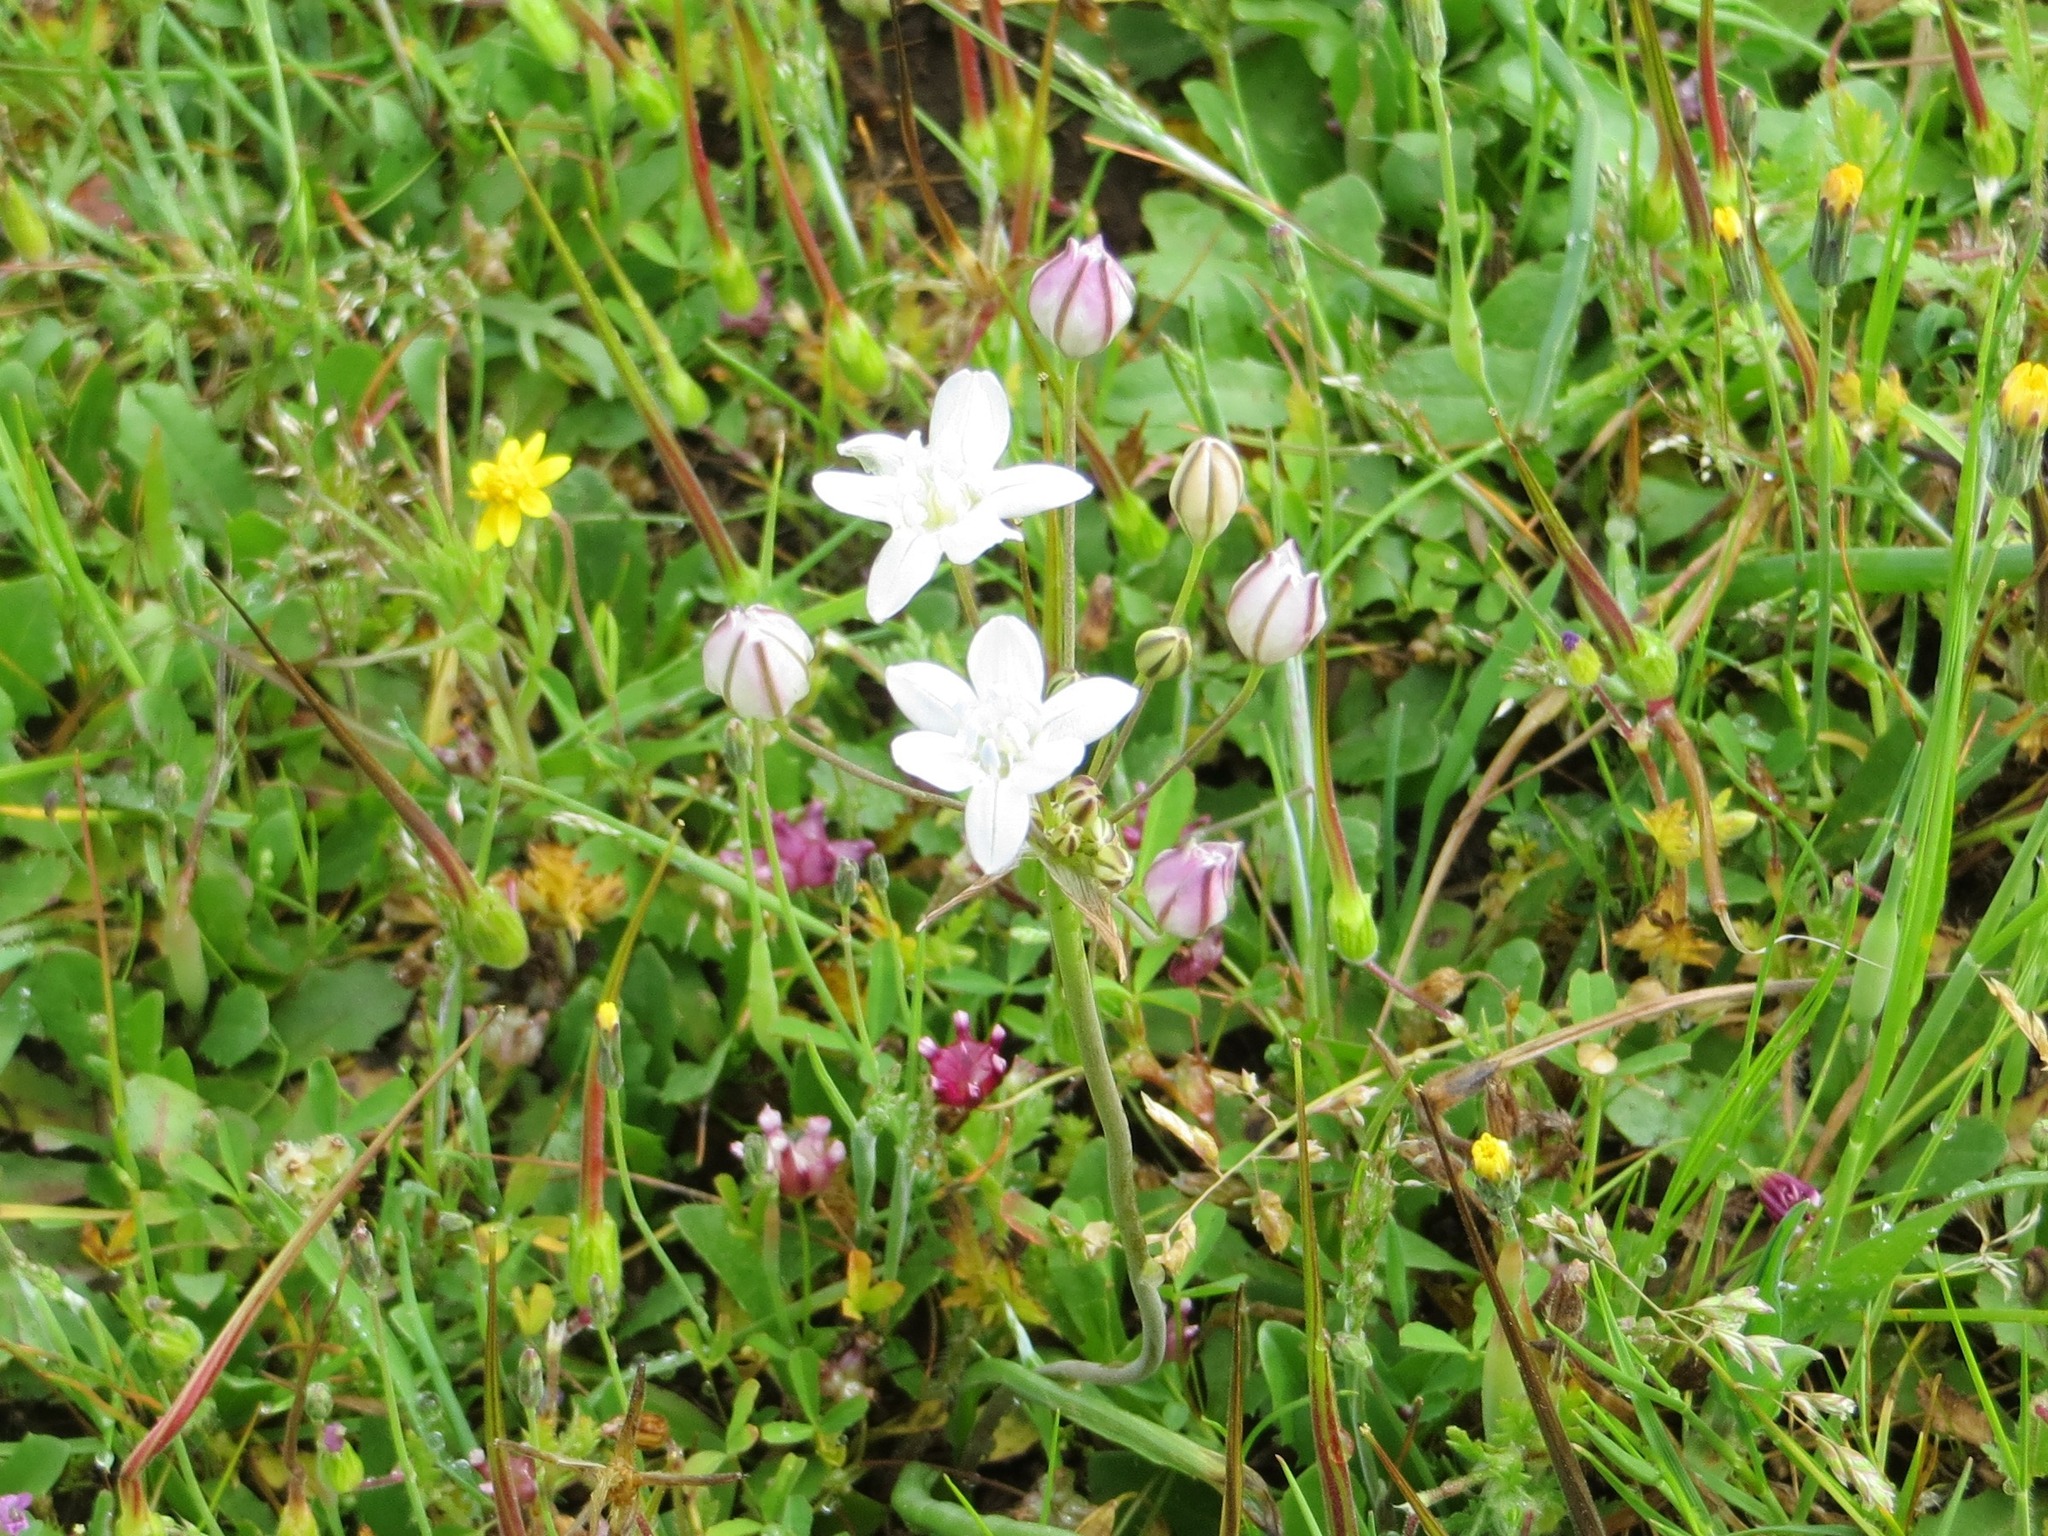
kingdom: Plantae
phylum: Tracheophyta
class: Liliopsida
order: Asparagales
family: Asparagaceae
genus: Triteleia
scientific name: Triteleia lilacina
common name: Lilac-flower wild hyacinth
